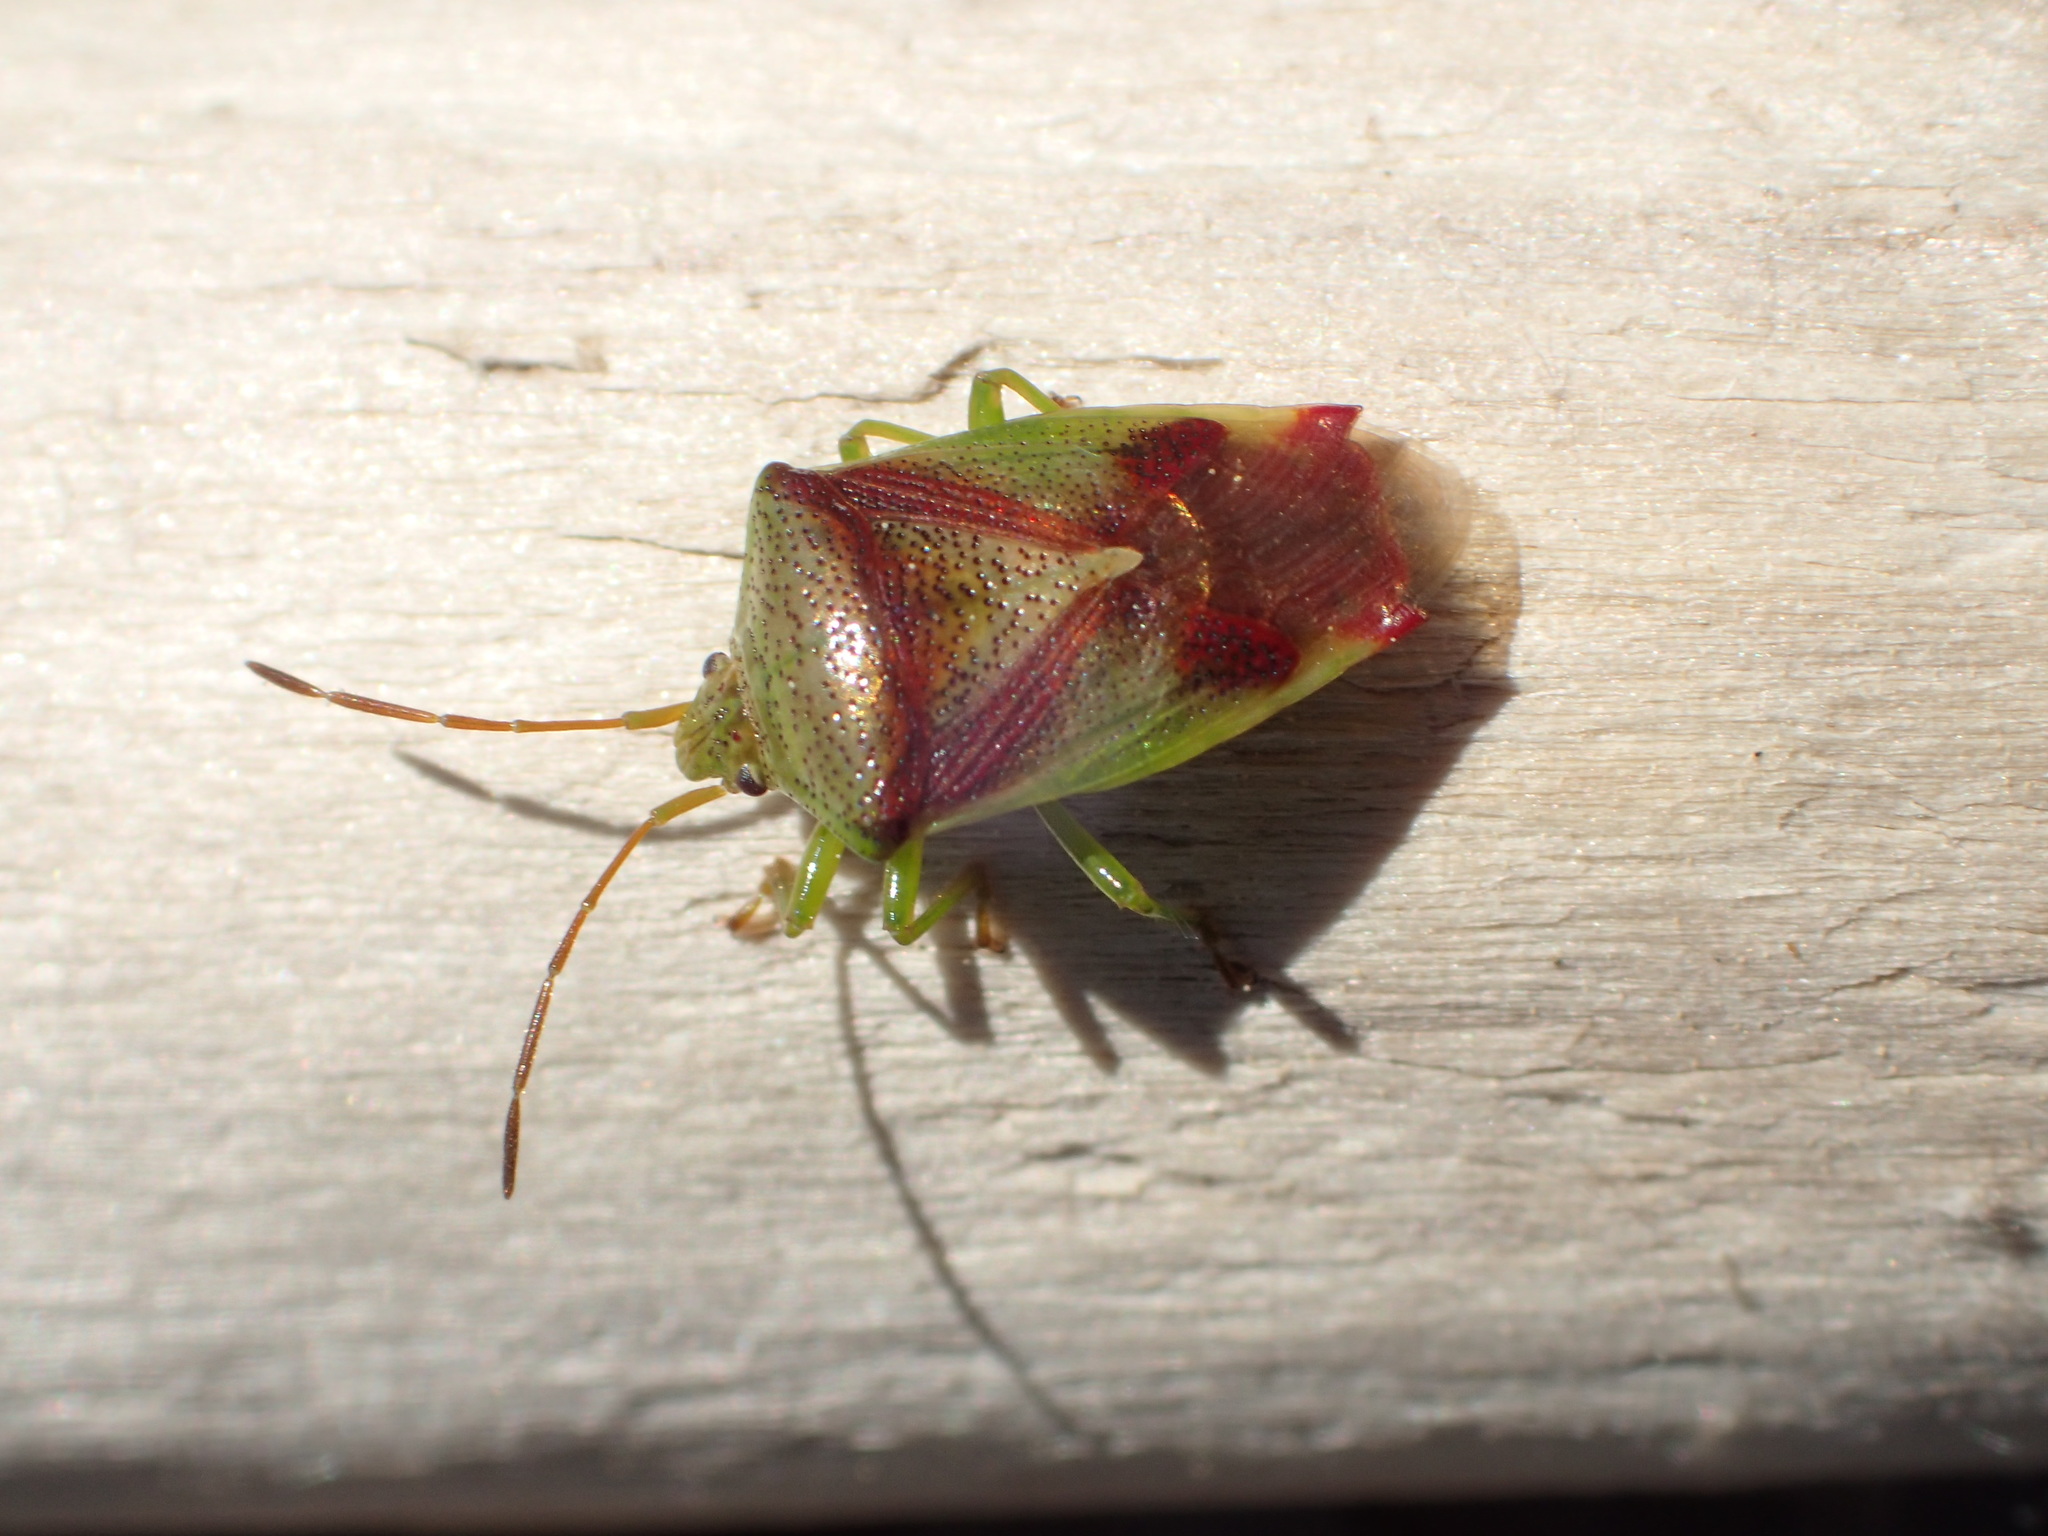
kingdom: Animalia
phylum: Arthropoda
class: Insecta
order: Hemiptera
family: Acanthosomatidae
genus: Elasmostethus
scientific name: Elasmostethus cruciatus
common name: Red-cross shield bug
